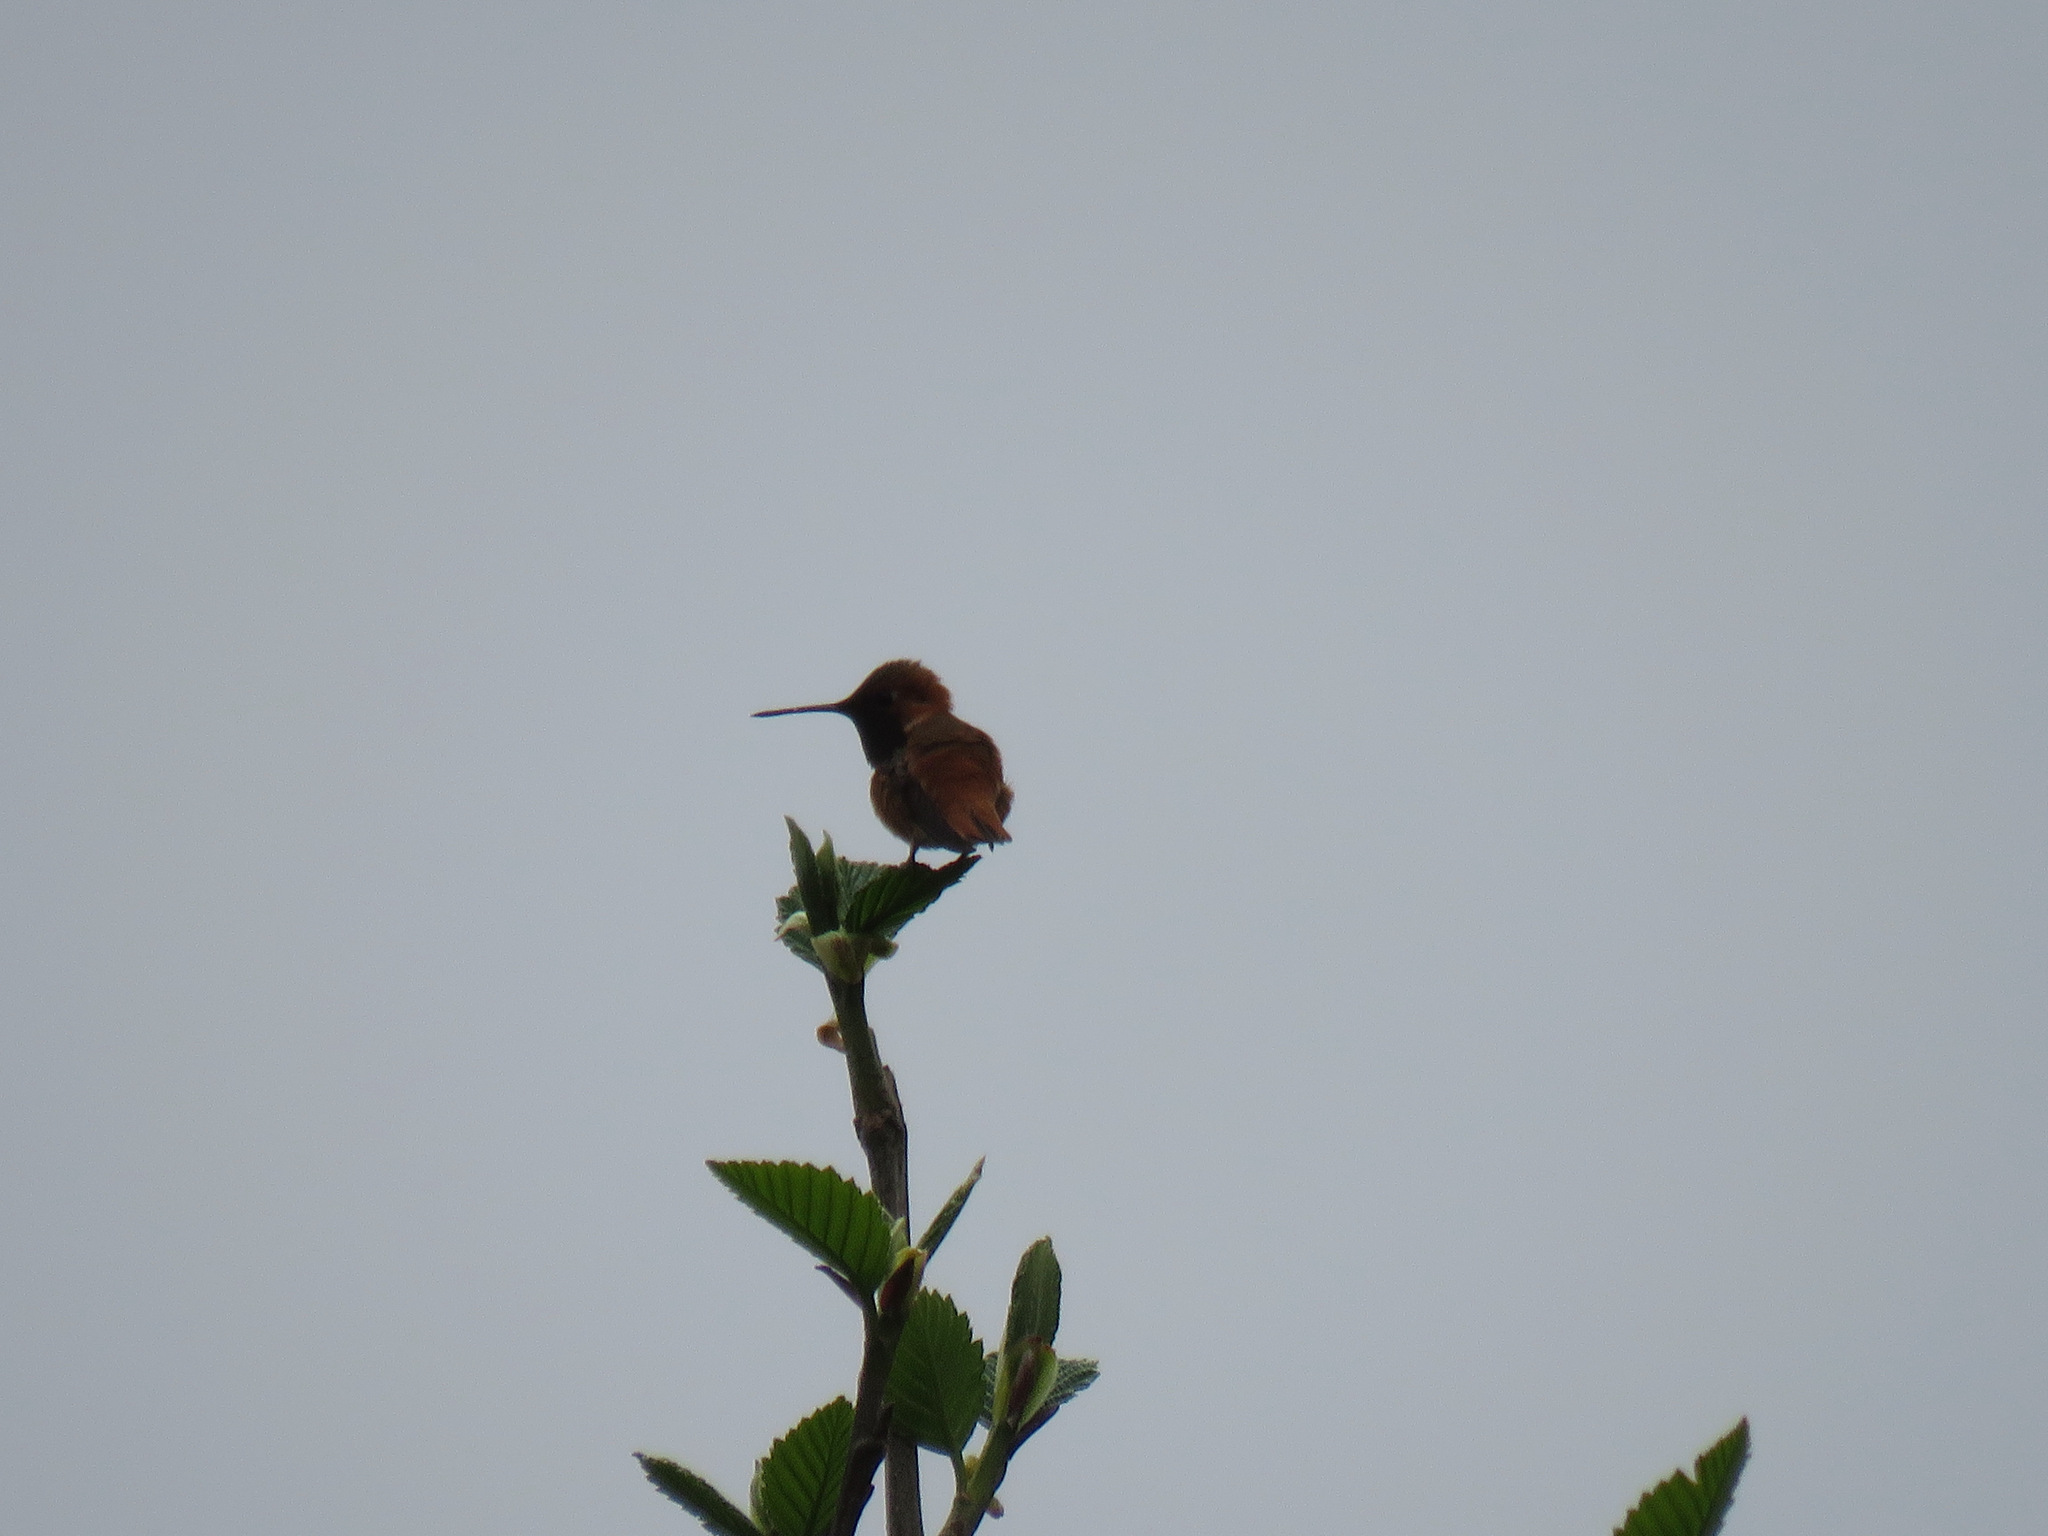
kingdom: Animalia
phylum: Chordata
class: Aves
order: Apodiformes
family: Trochilidae
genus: Selasphorus
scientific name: Selasphorus rufus
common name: Rufous hummingbird
